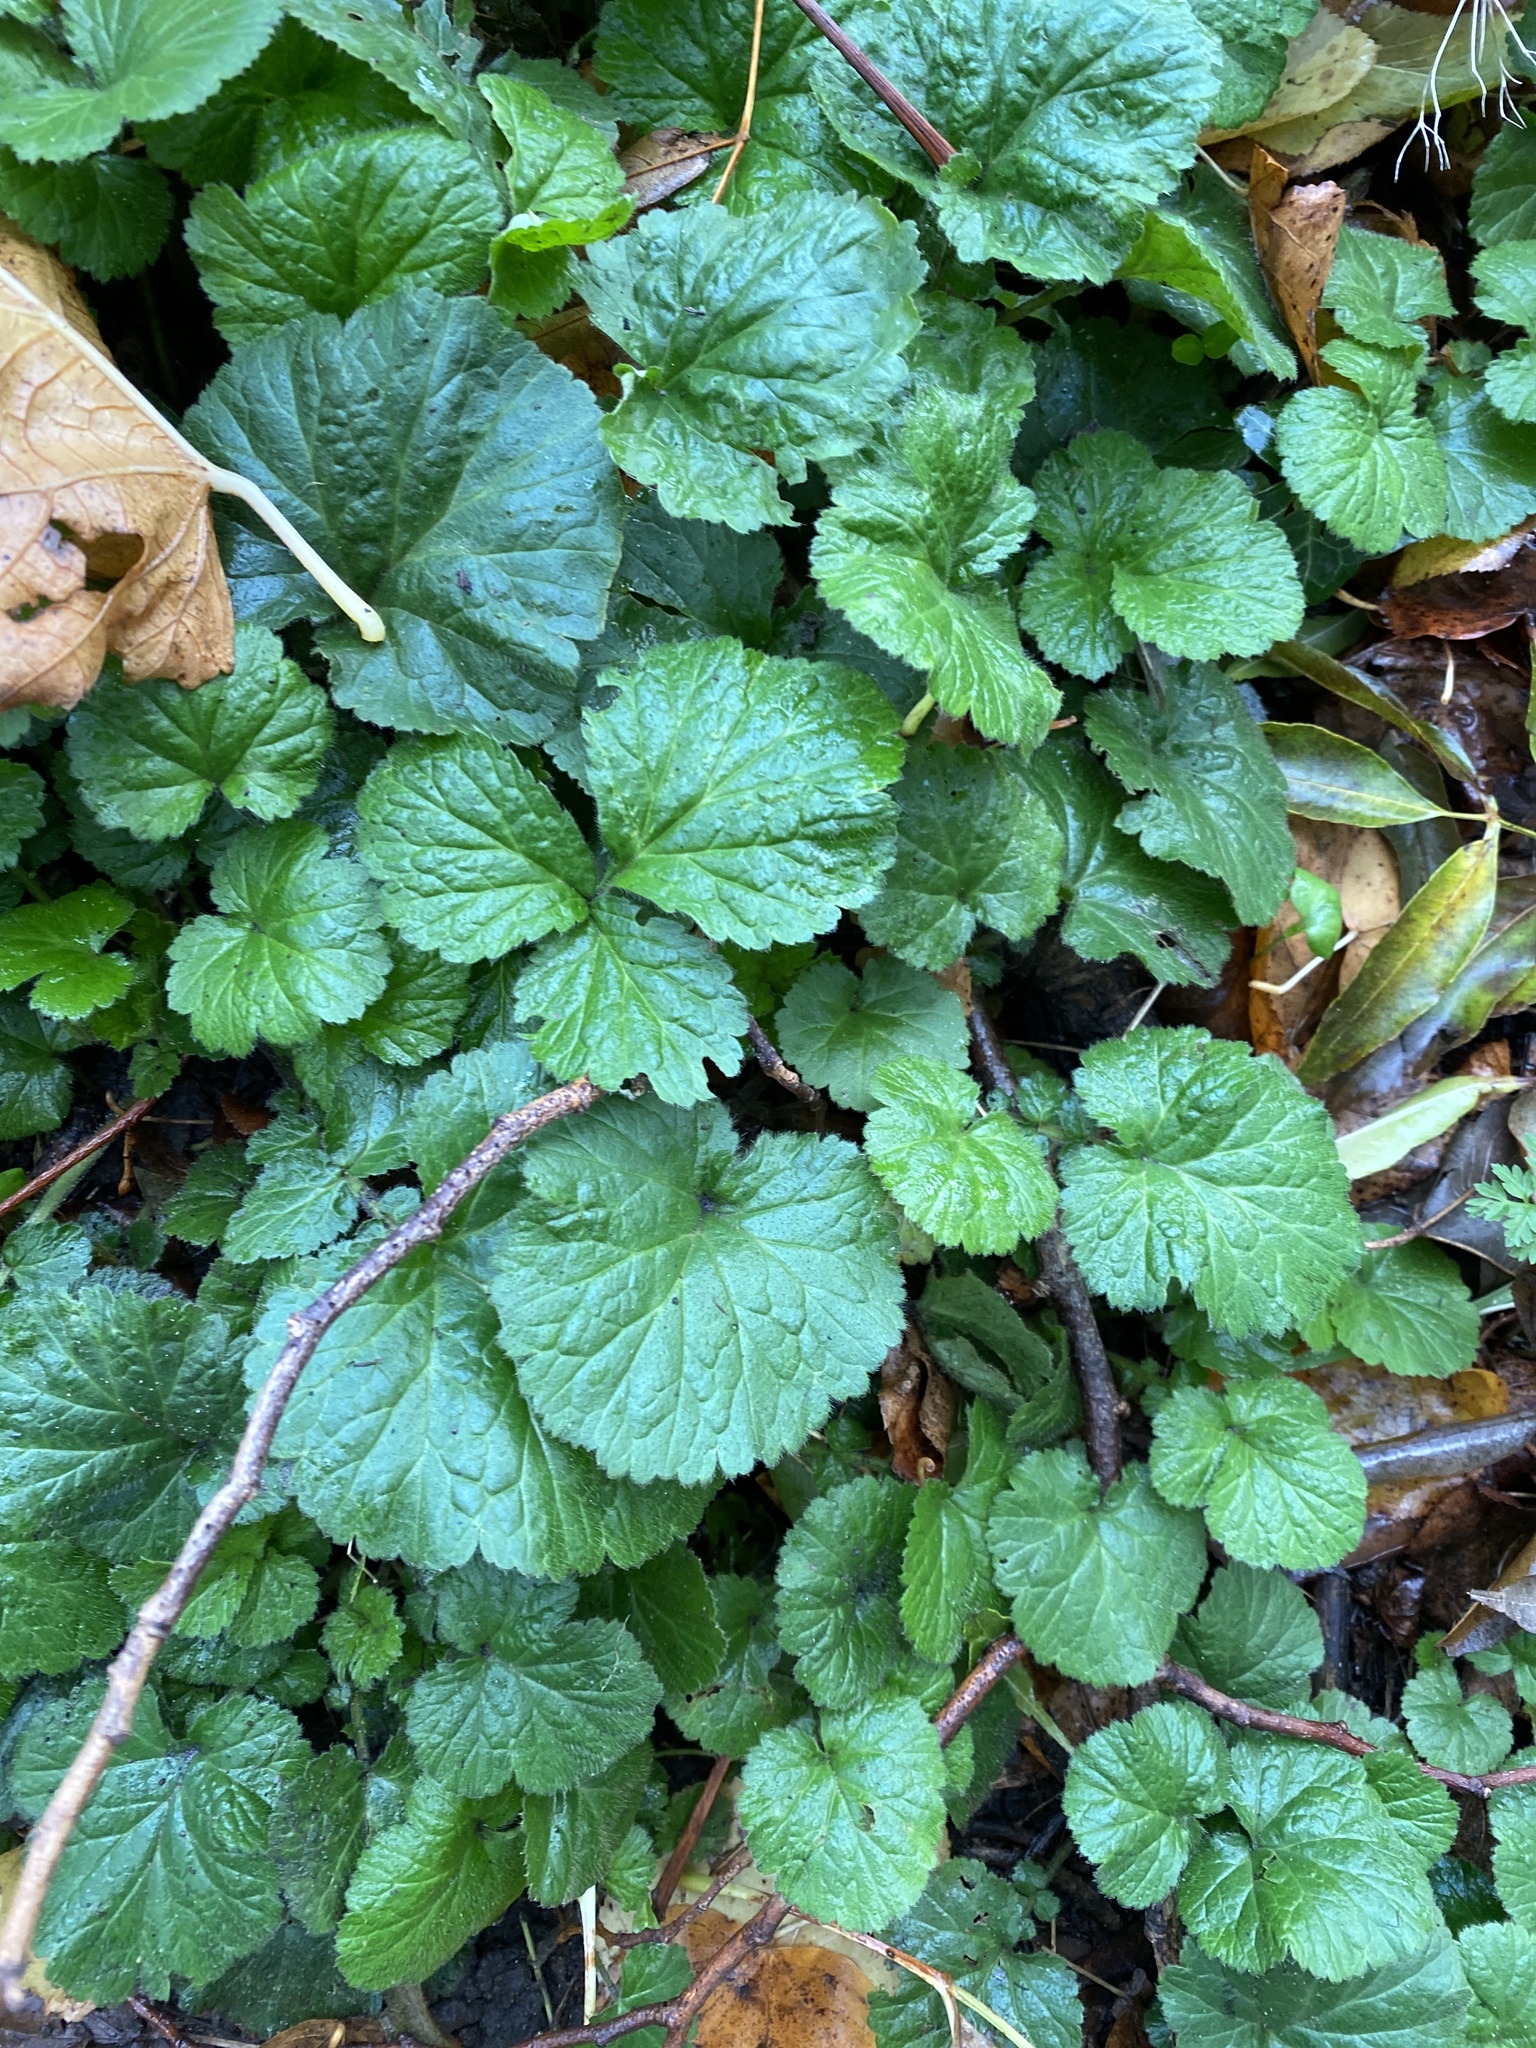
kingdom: Plantae
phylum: Tracheophyta
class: Magnoliopsida
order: Rosales
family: Rosaceae
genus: Geum
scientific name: Geum urbanum
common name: Wood avens
